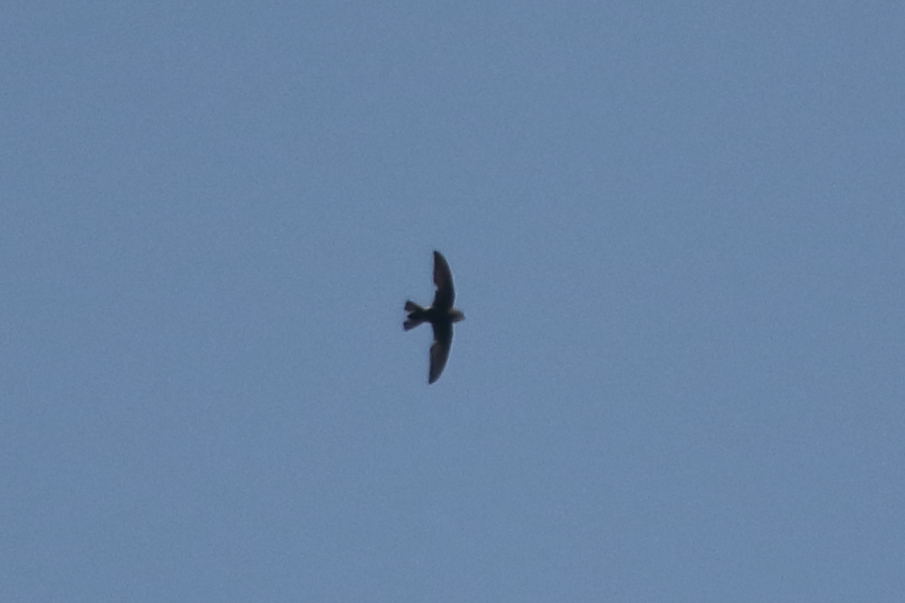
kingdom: Animalia
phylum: Chordata
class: Aves
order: Apodiformes
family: Apodidae
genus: Apus
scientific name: Apus nipalensis
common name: House swift
